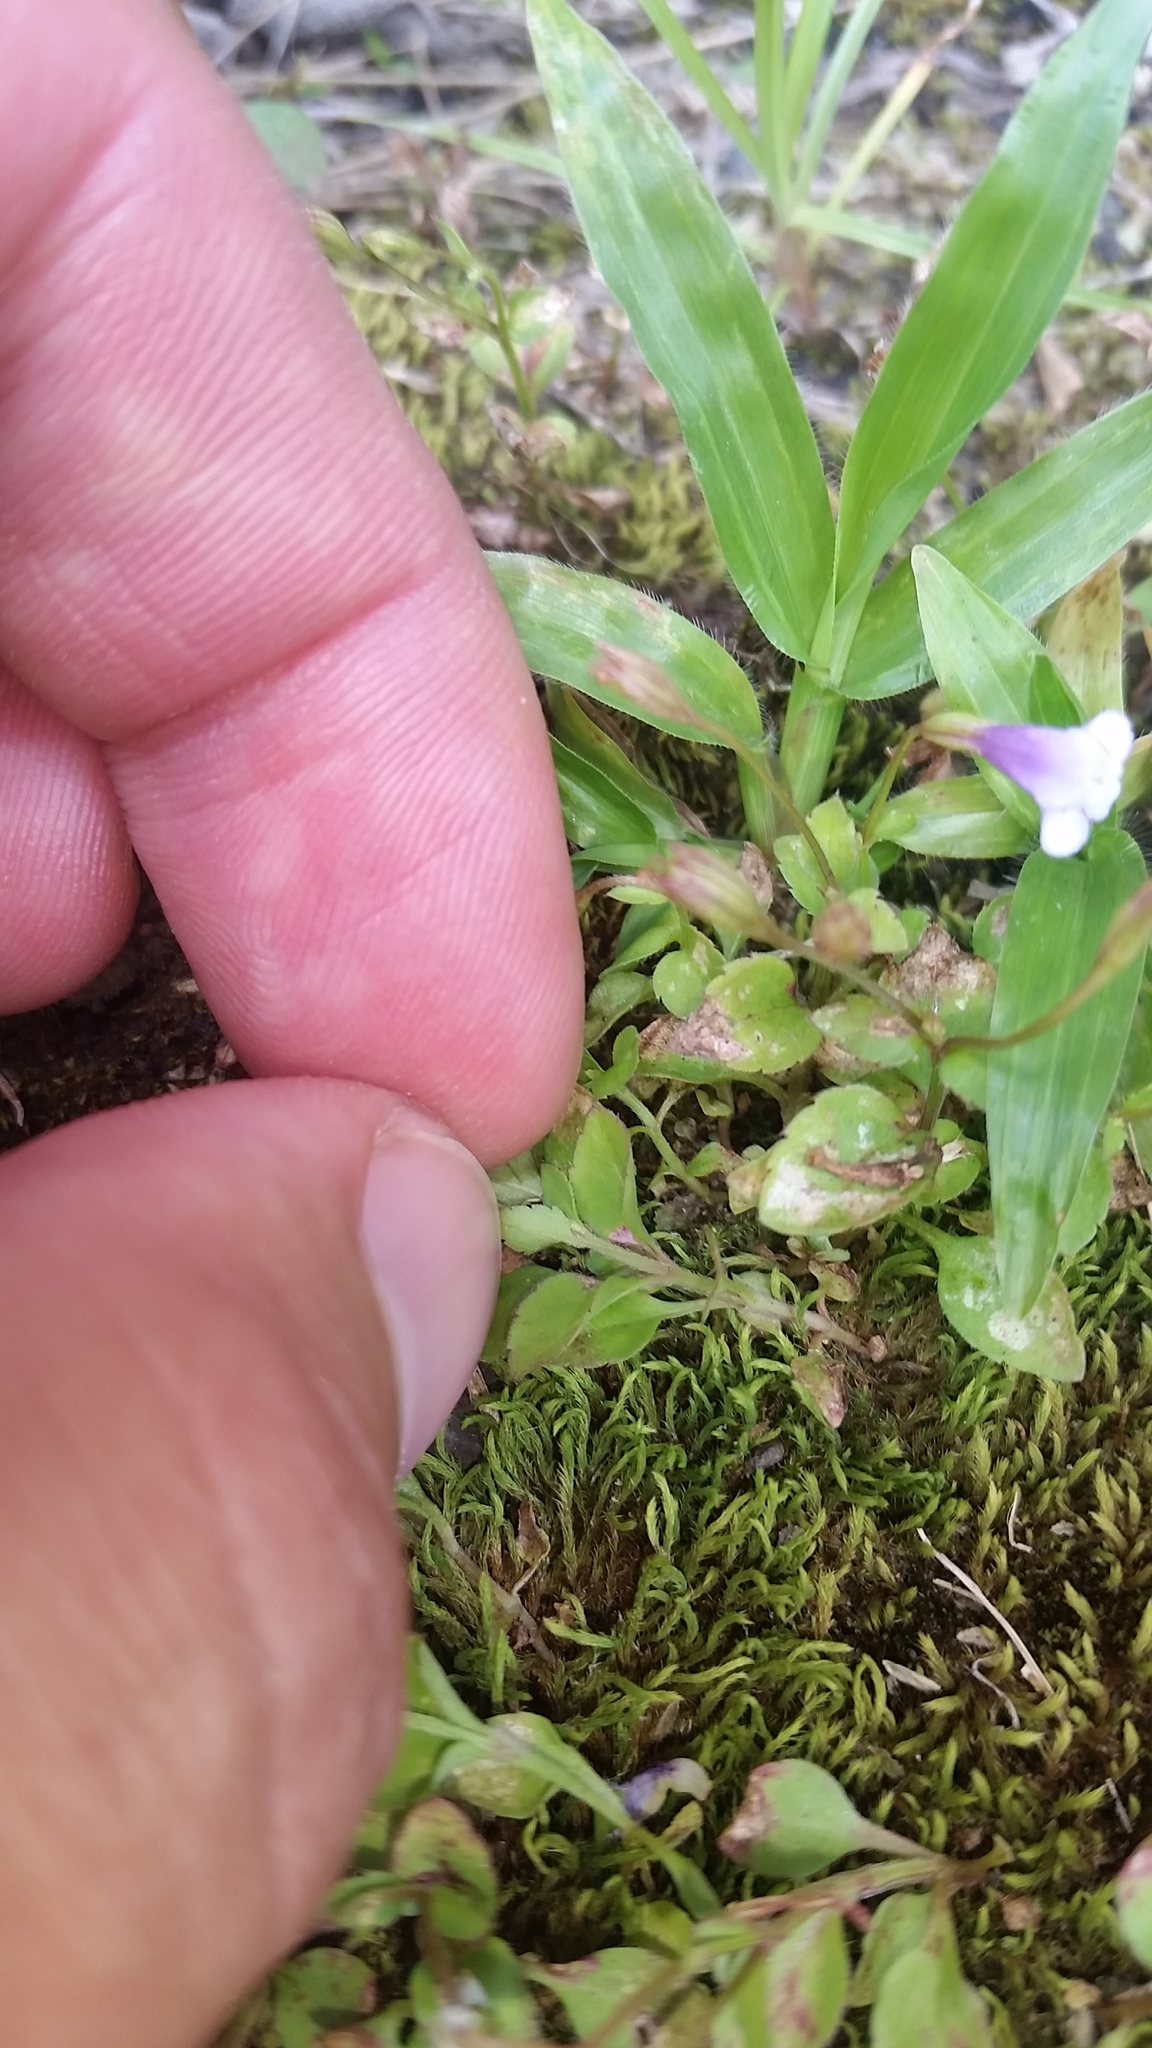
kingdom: Plantae
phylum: Tracheophyta
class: Magnoliopsida
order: Lamiales
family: Linderniaceae
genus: Torenia
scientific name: Torenia crustacea
